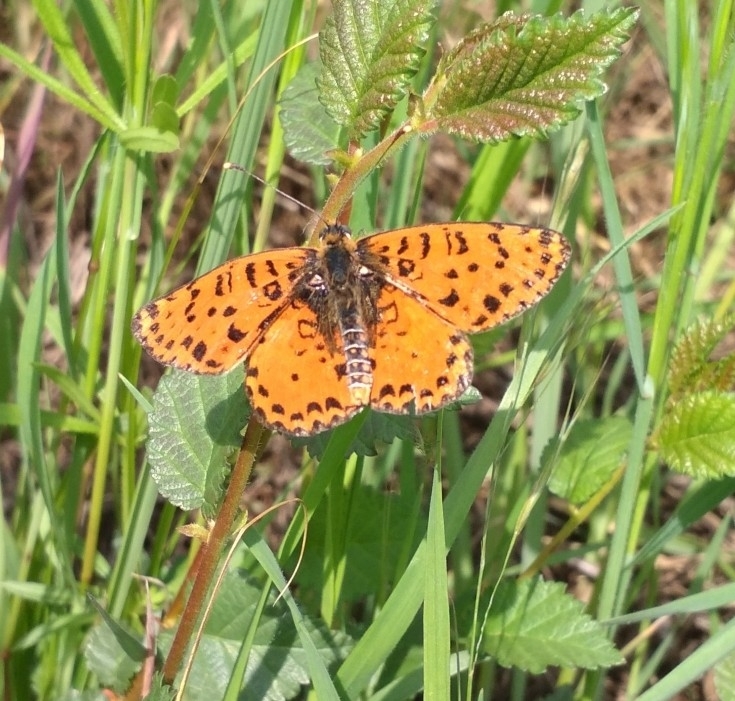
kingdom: Animalia
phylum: Arthropoda
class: Insecta
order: Lepidoptera
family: Nymphalidae
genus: Melitaea
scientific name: Melitaea didyma
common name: Spotted fritillary
